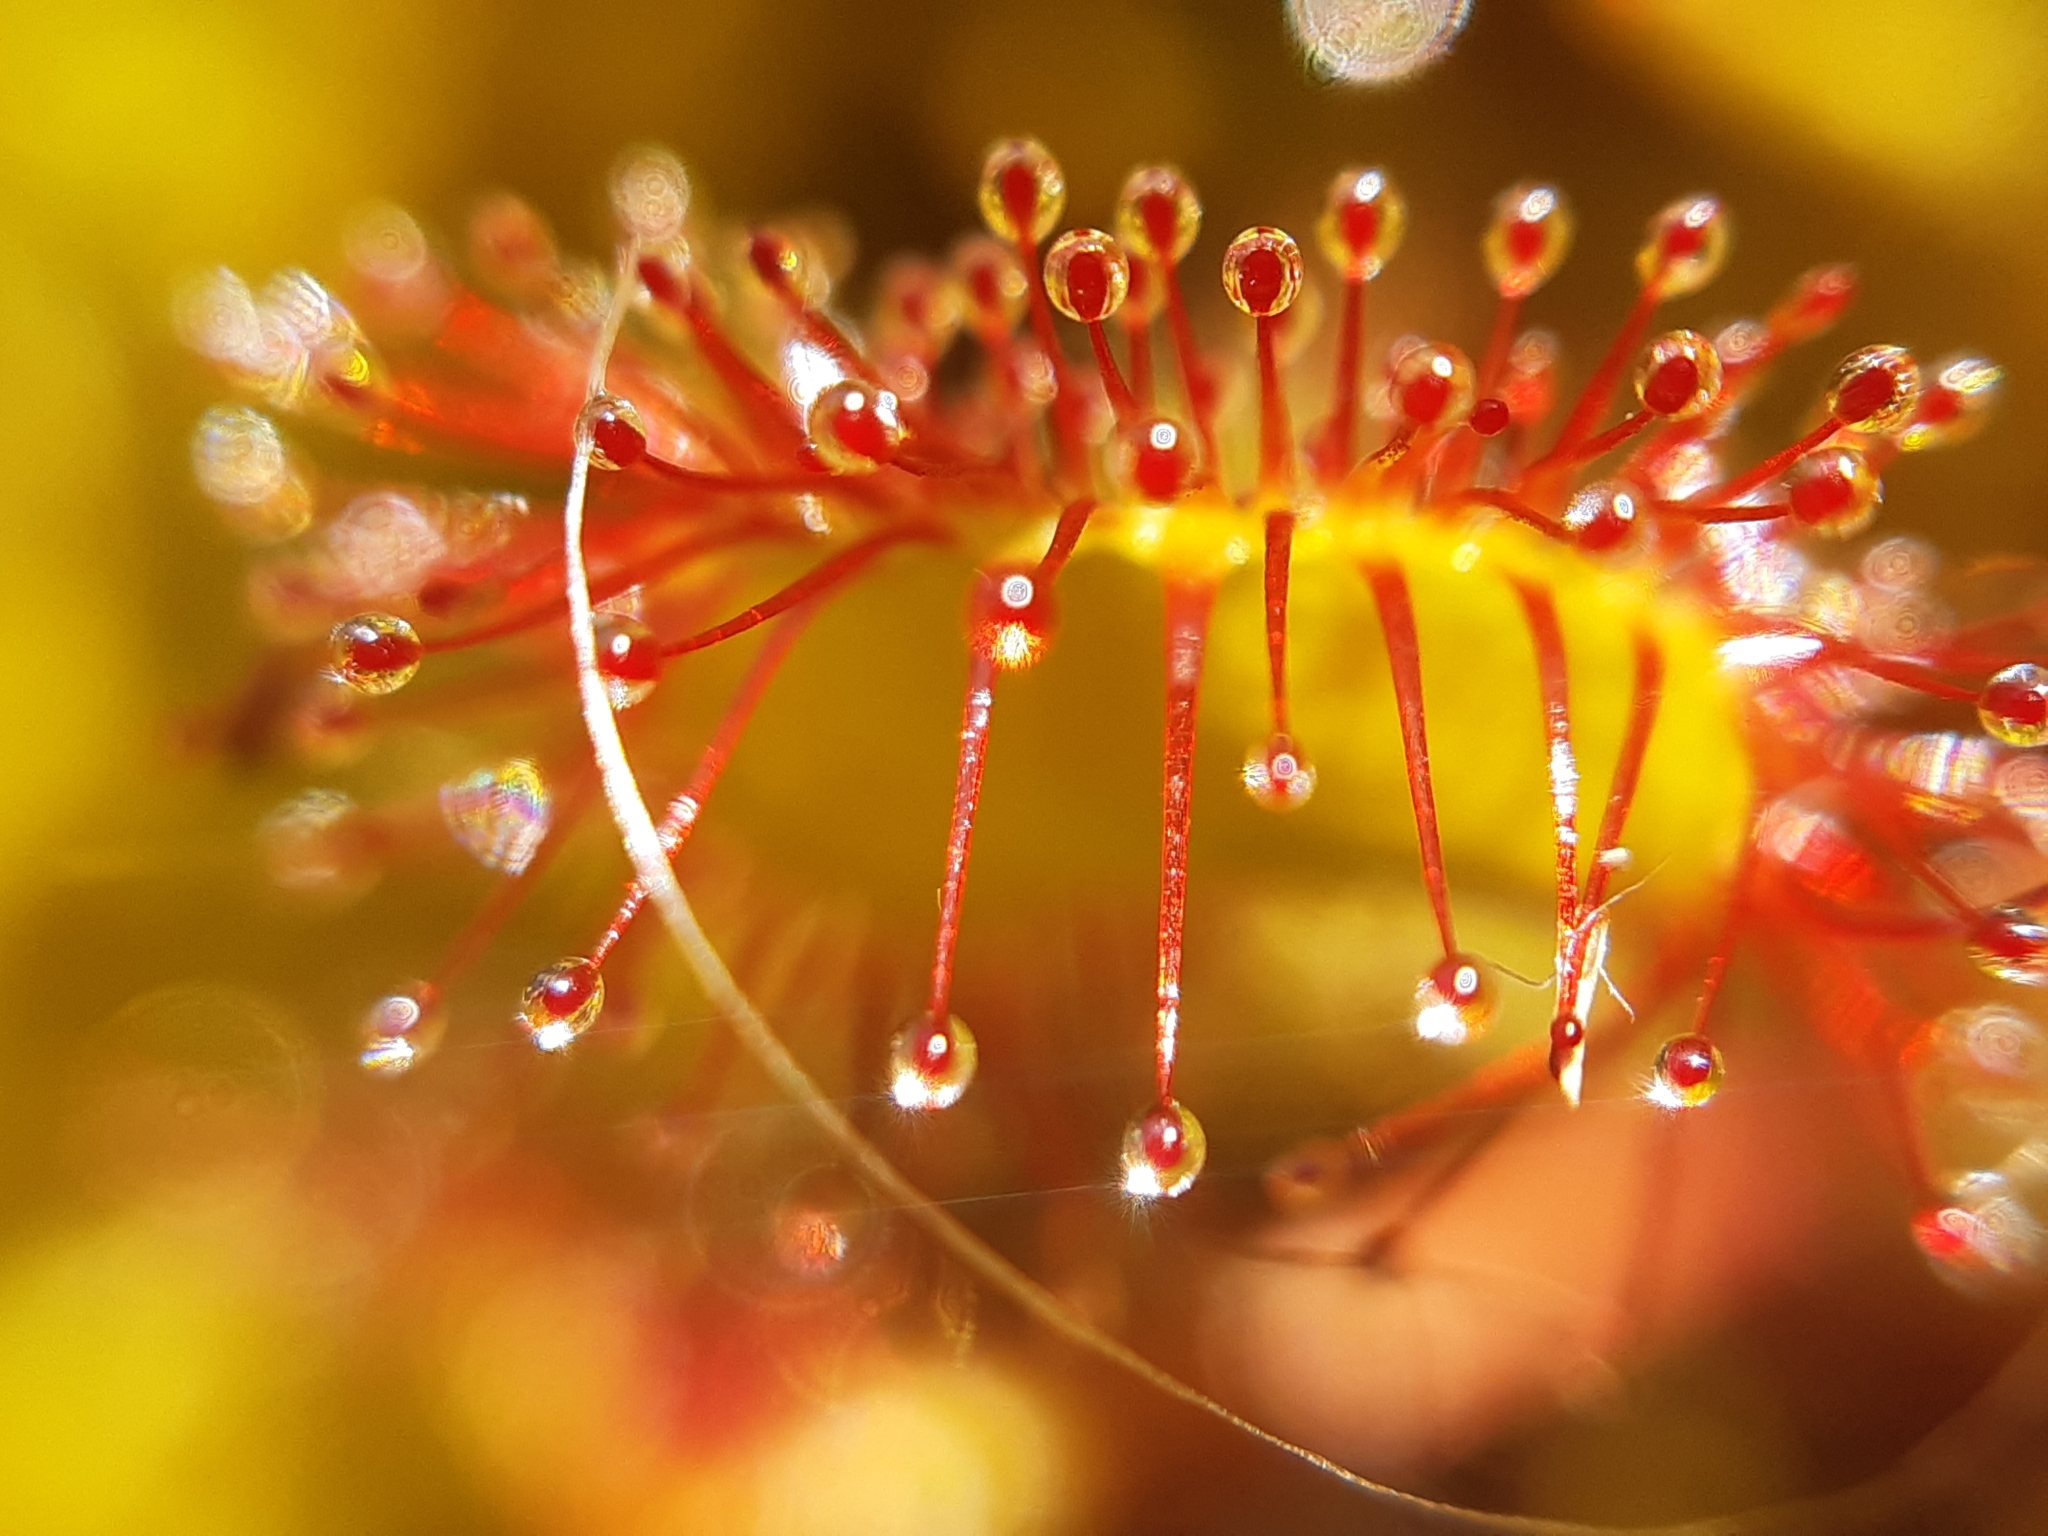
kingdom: Plantae
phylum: Tracheophyta
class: Magnoliopsida
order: Caryophyllales
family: Droseraceae
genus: Drosera
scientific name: Drosera rotundifolia
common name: Round-leaved sundew
